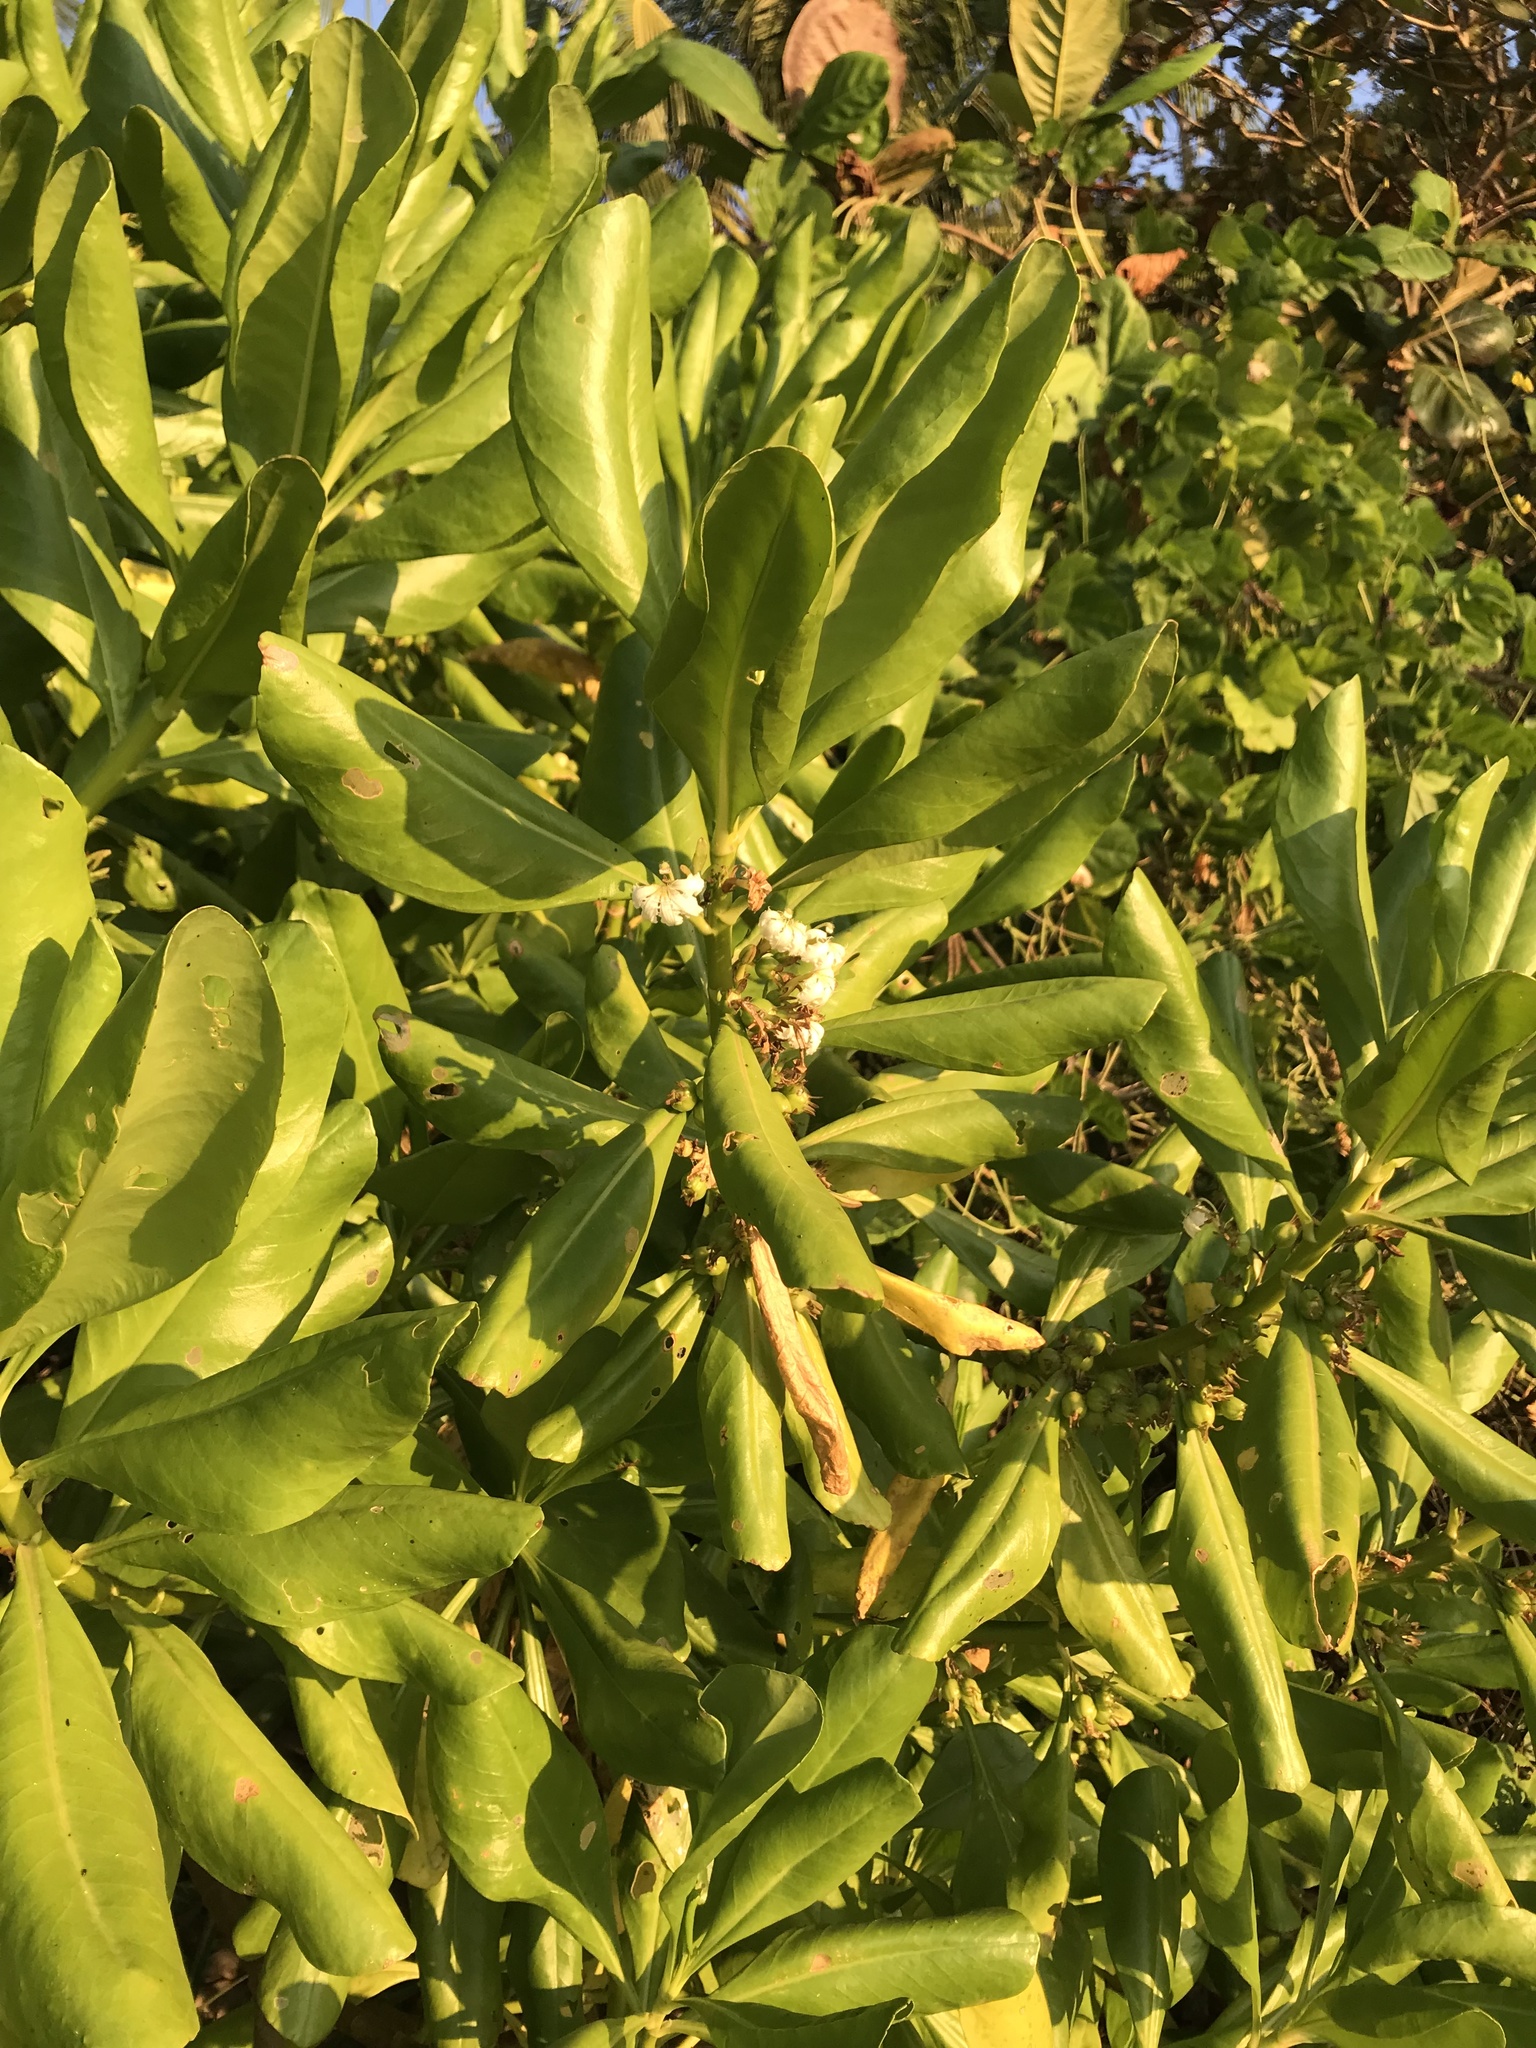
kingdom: Plantae
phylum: Tracheophyta
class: Magnoliopsida
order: Asterales
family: Goodeniaceae
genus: Scaevola
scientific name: Scaevola taccada
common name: Sea lettucetree
